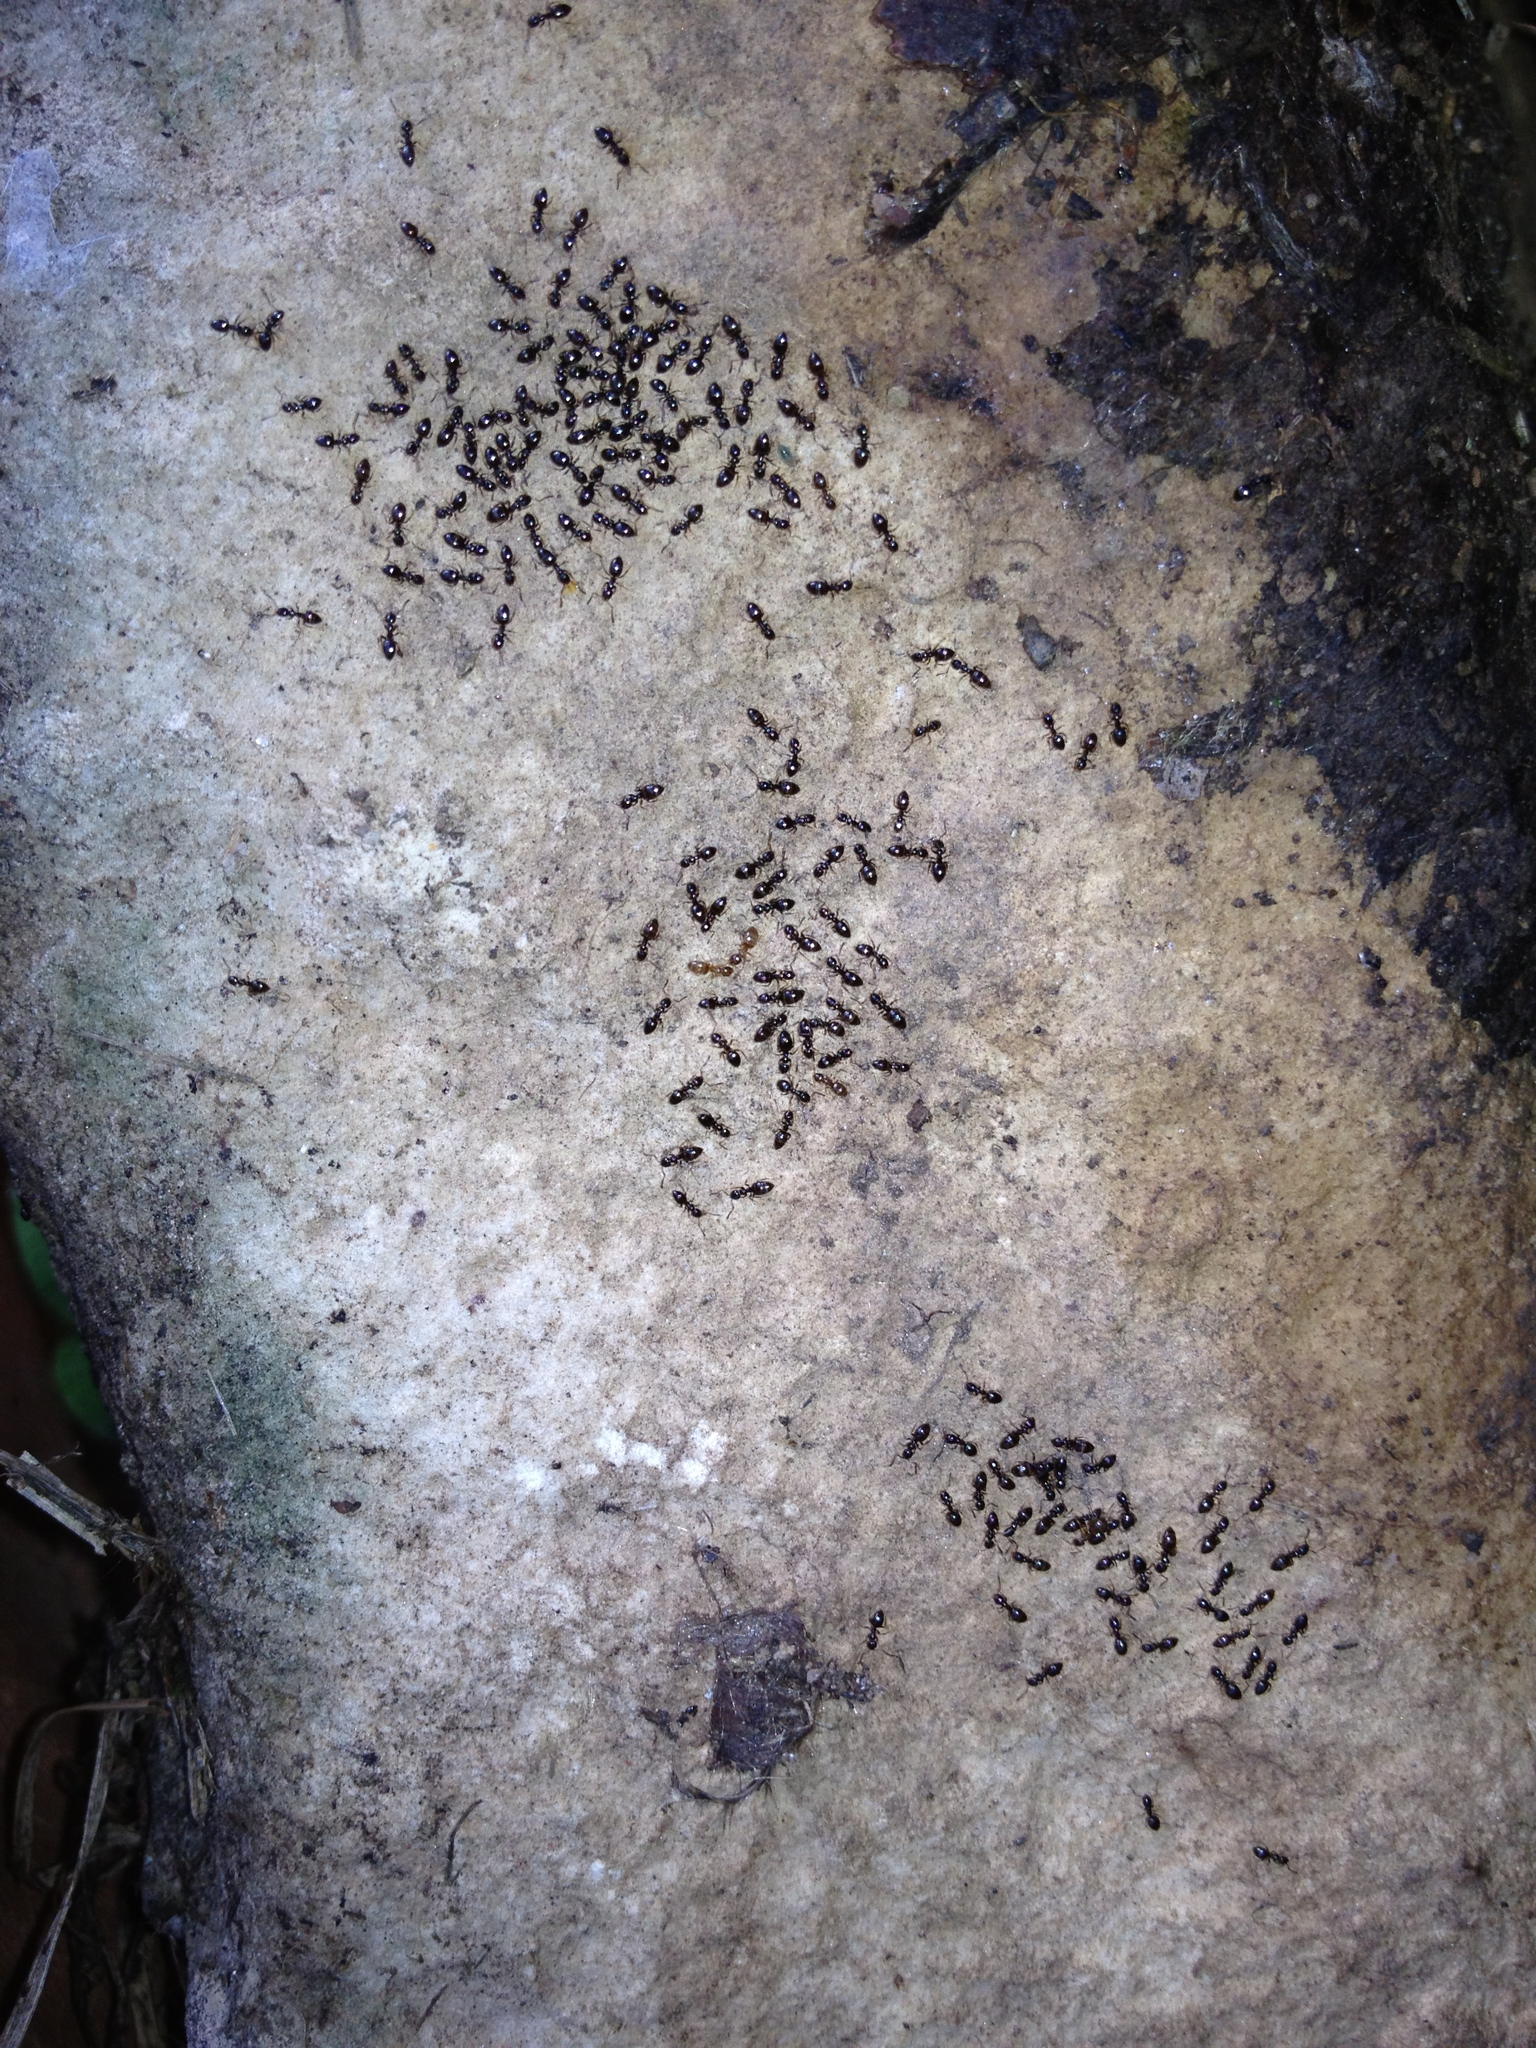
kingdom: Animalia
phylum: Arthropoda
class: Insecta
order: Hymenoptera
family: Formicidae
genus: Plagiolepis
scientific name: Plagiolepis pygmaea
